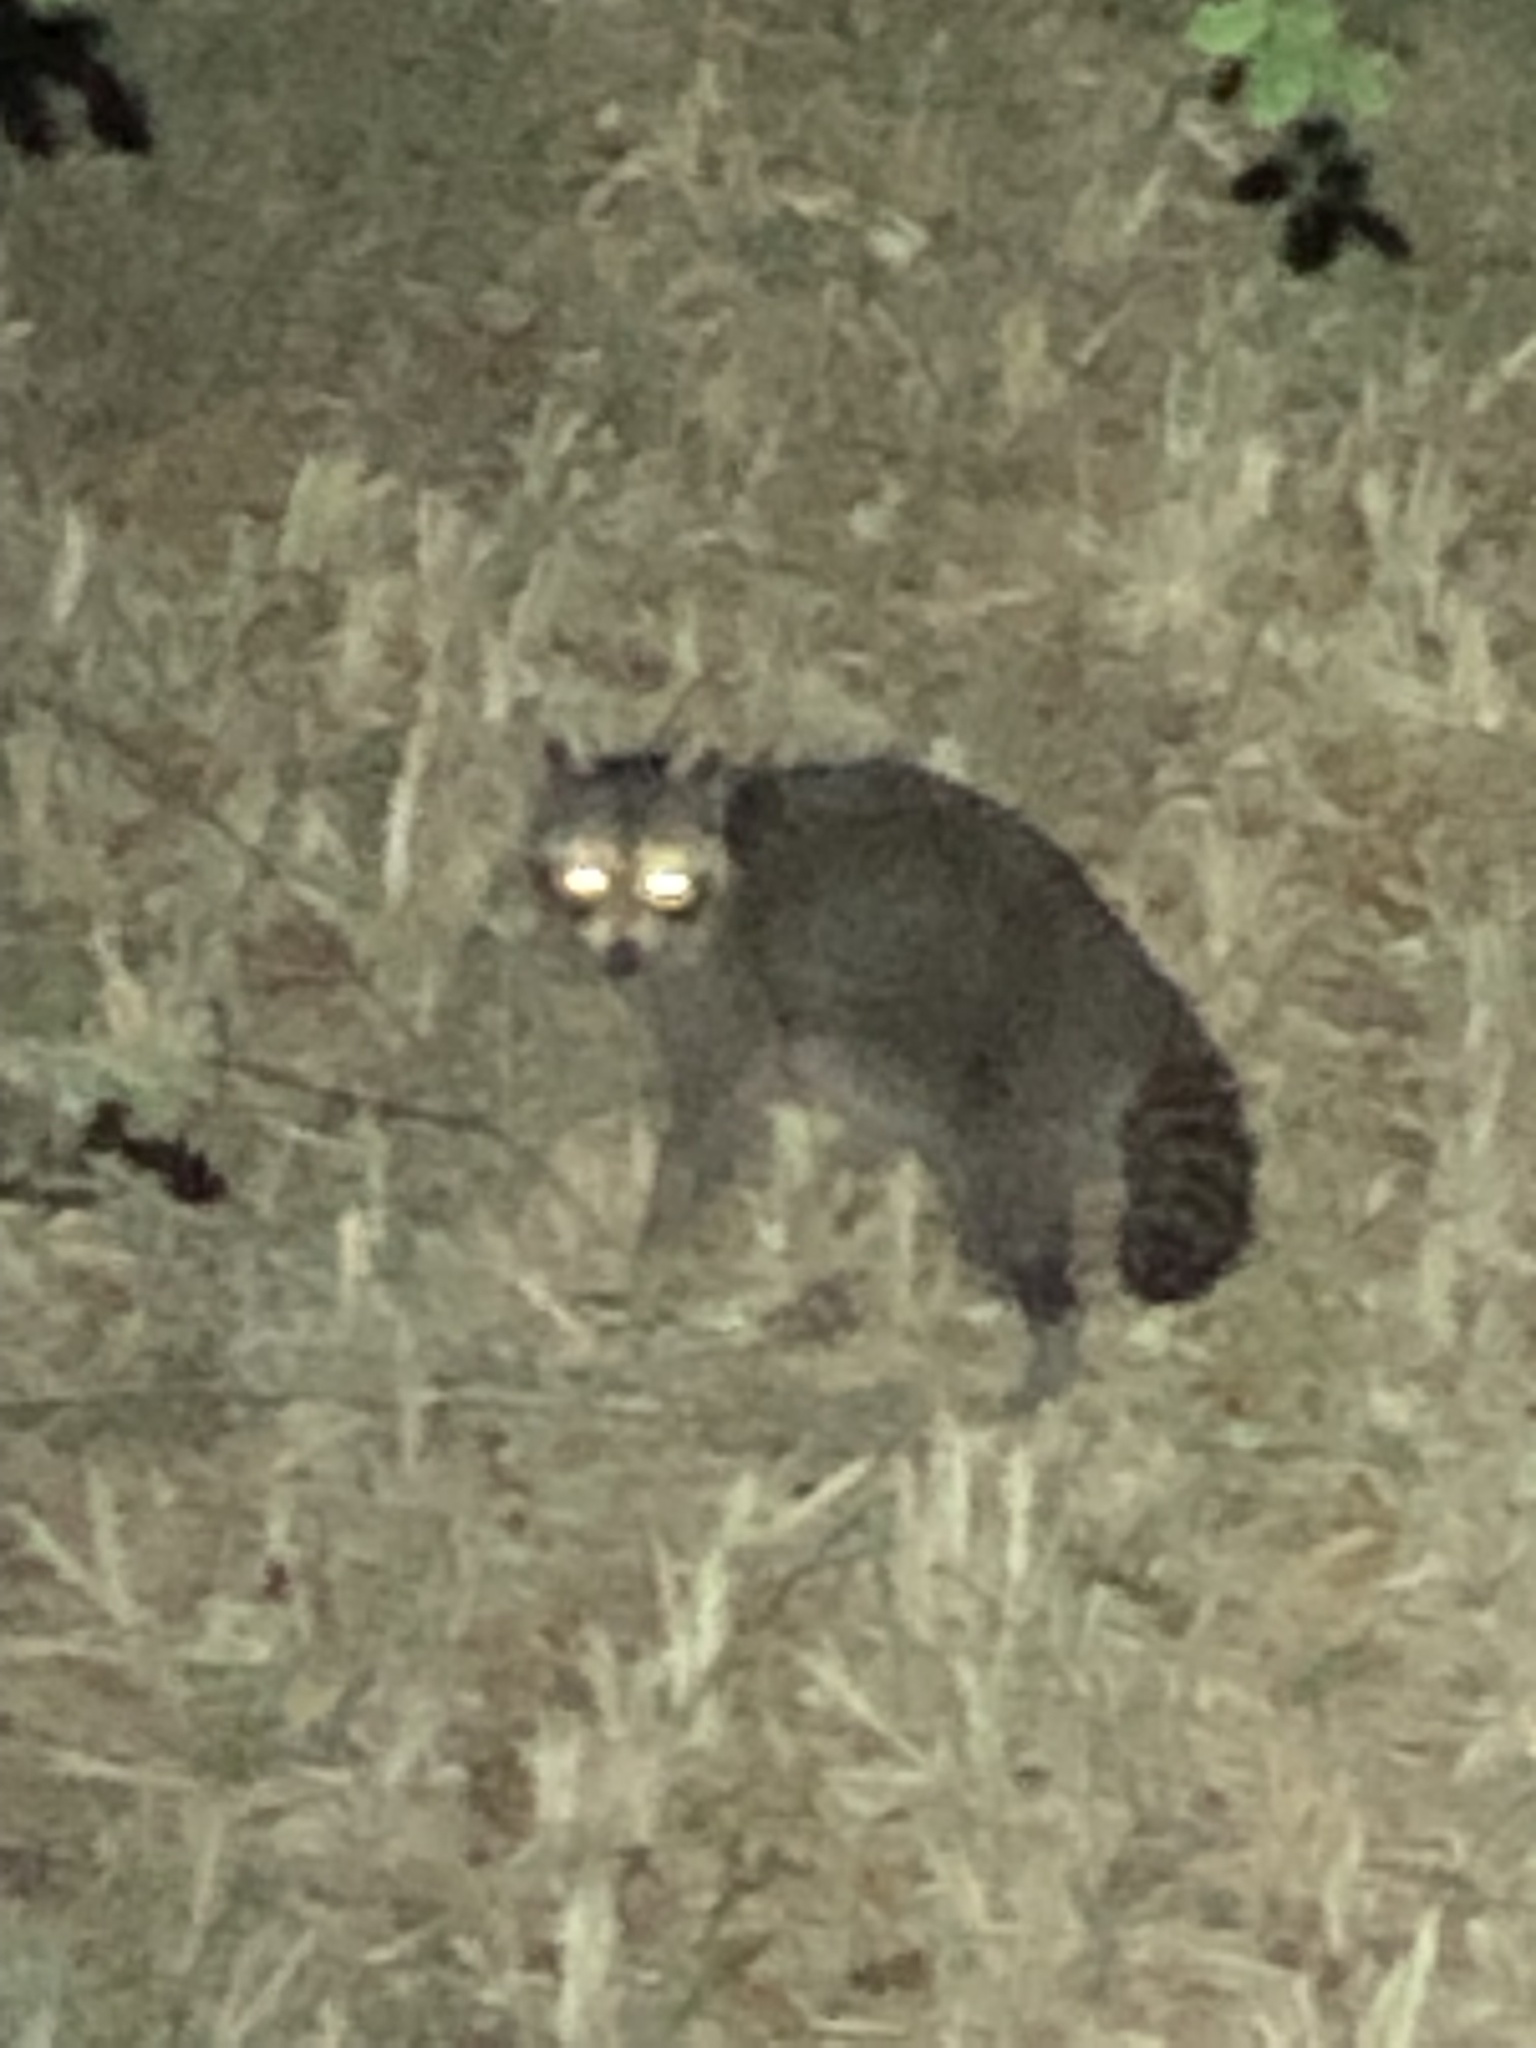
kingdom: Animalia
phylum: Chordata
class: Mammalia
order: Carnivora
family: Procyonidae
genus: Procyon
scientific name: Procyon lotor
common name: Raccoon
